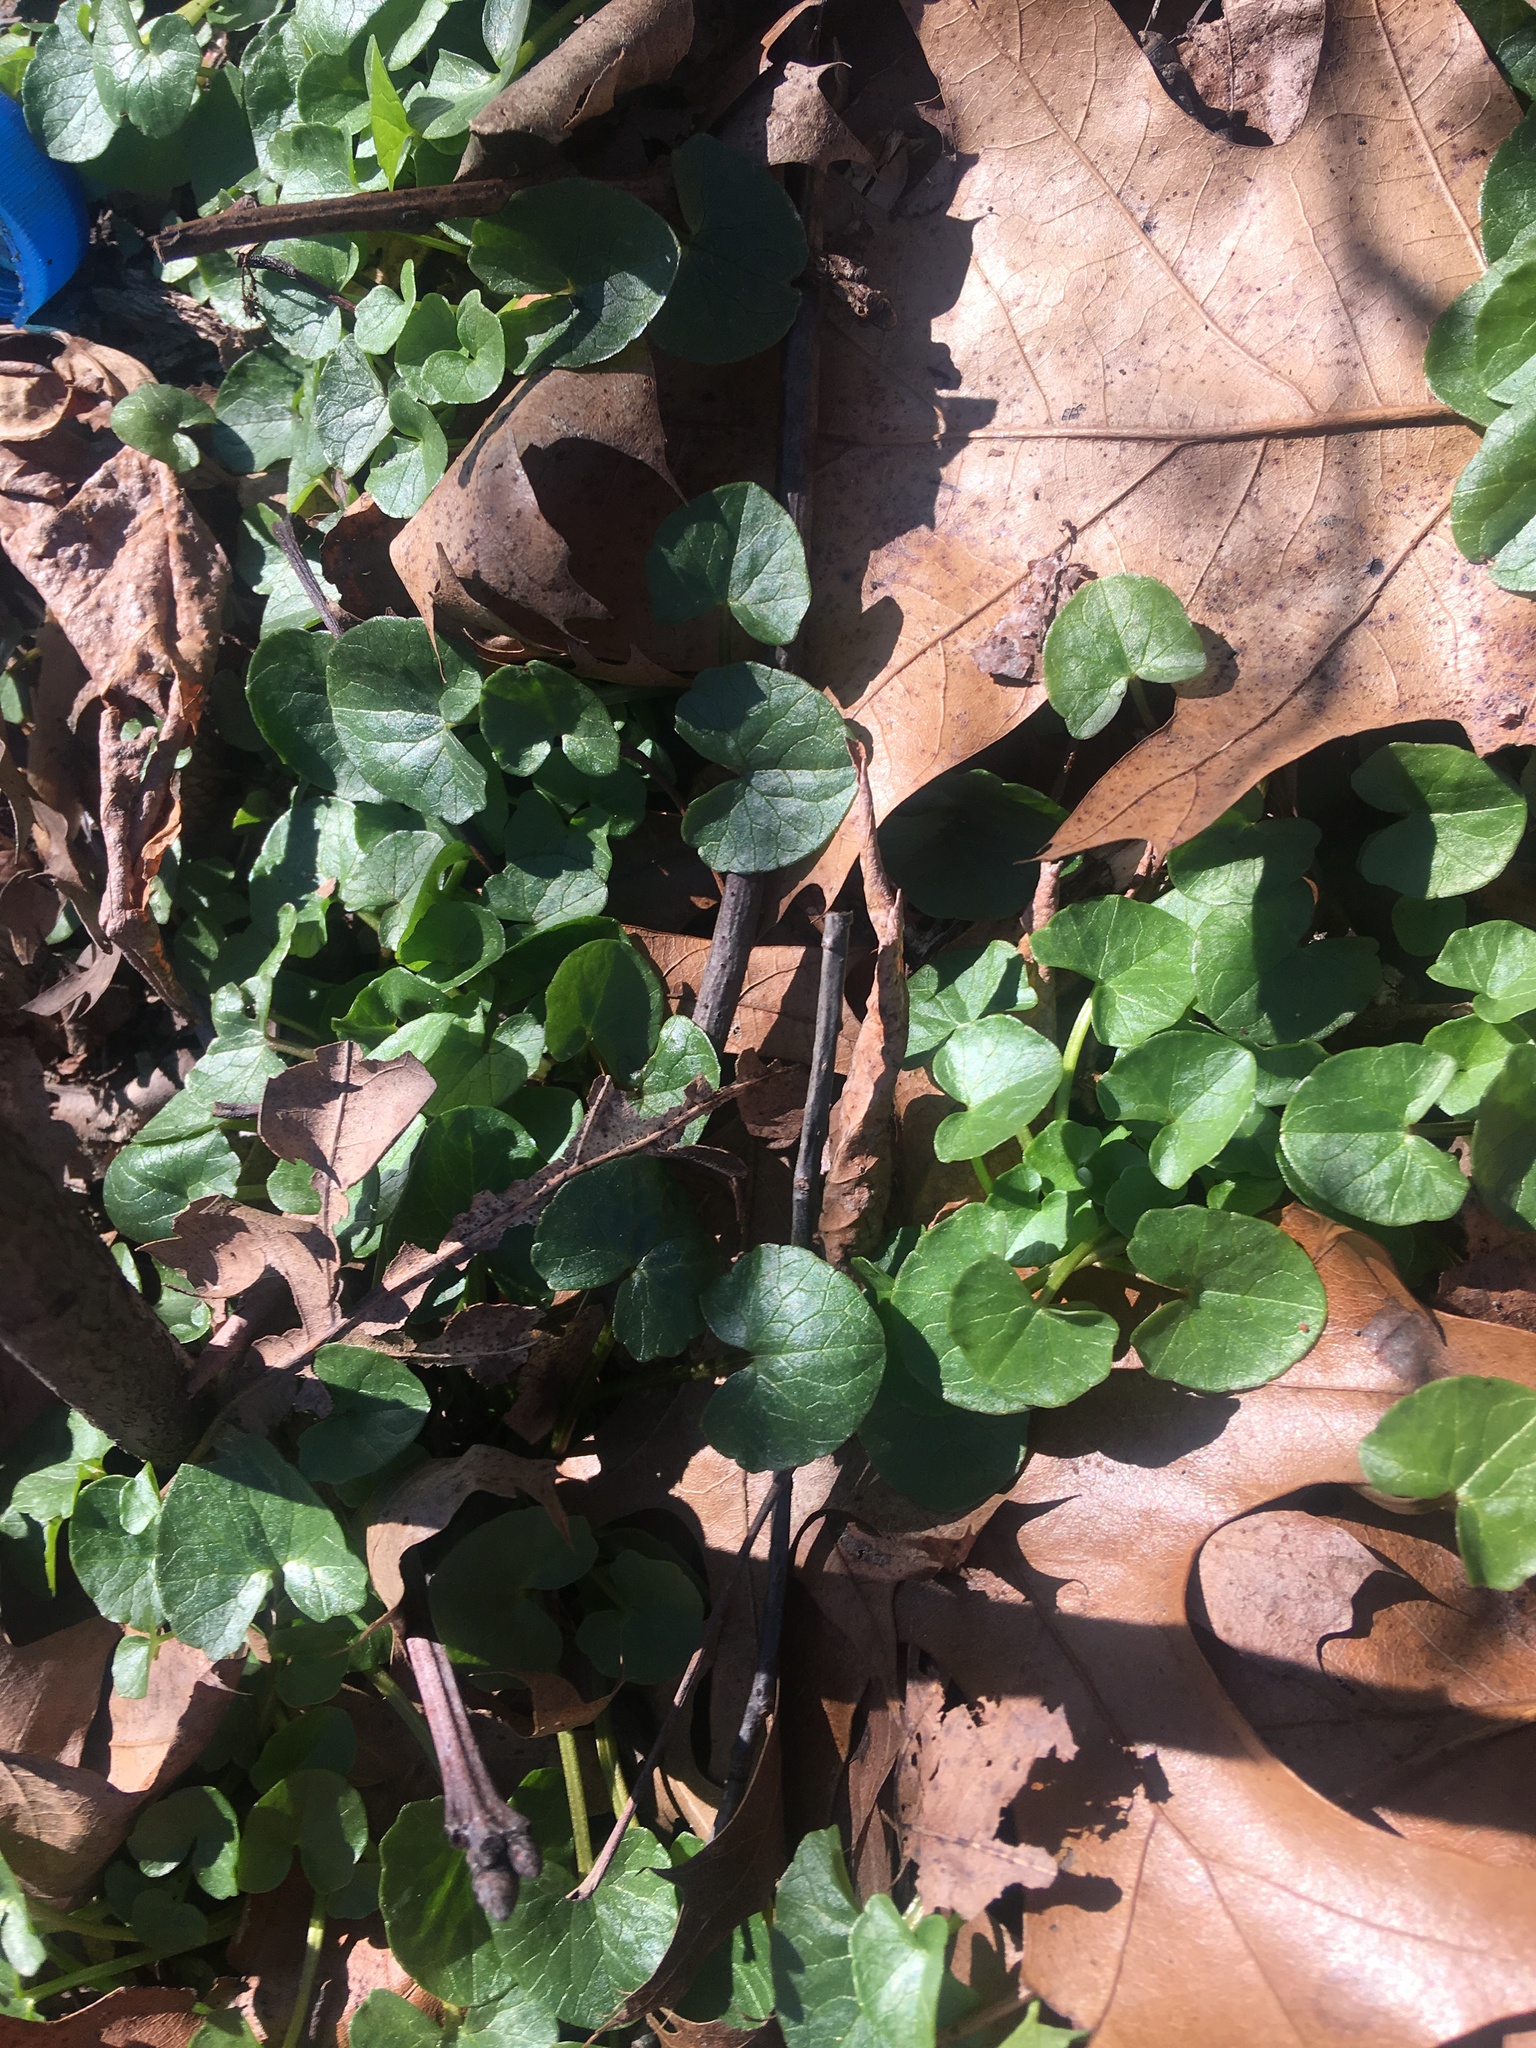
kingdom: Plantae
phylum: Tracheophyta
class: Magnoliopsida
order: Ranunculales
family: Ranunculaceae
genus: Ficaria
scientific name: Ficaria verna
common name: Lesser celandine
